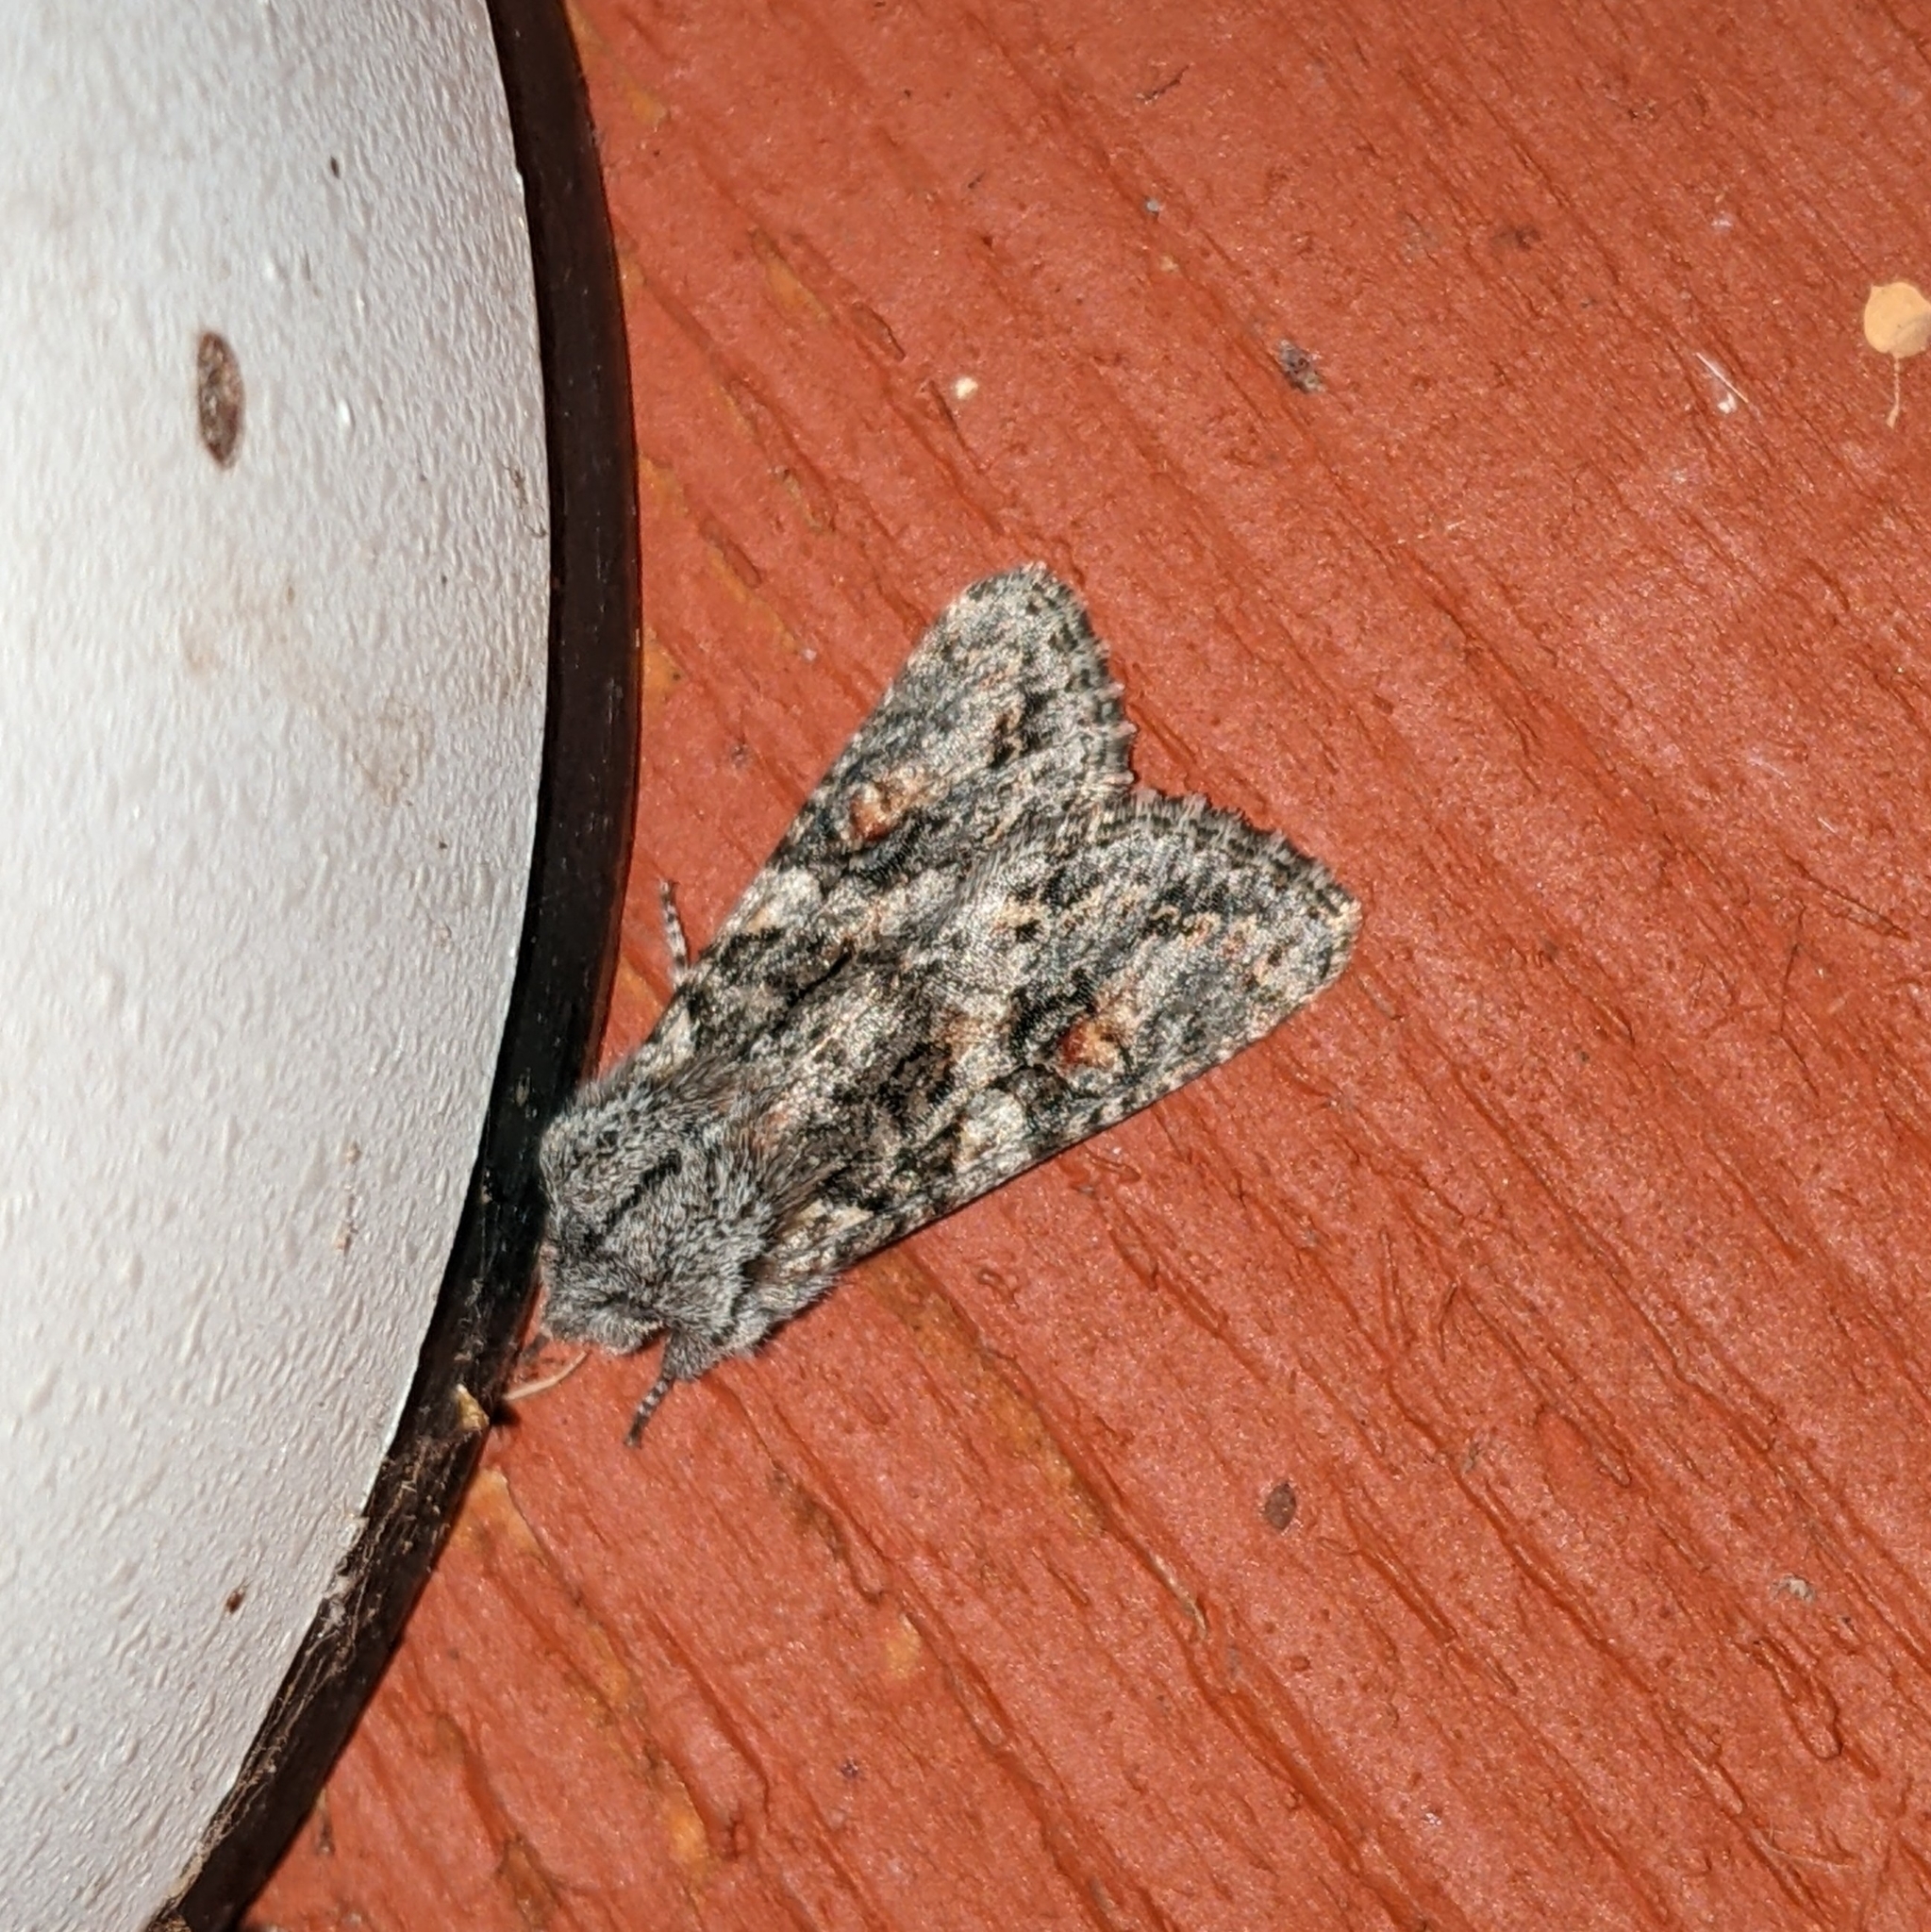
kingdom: Animalia
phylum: Arthropoda
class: Insecta
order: Lepidoptera
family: Noctuidae
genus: Egira
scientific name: Egira hiemalis
